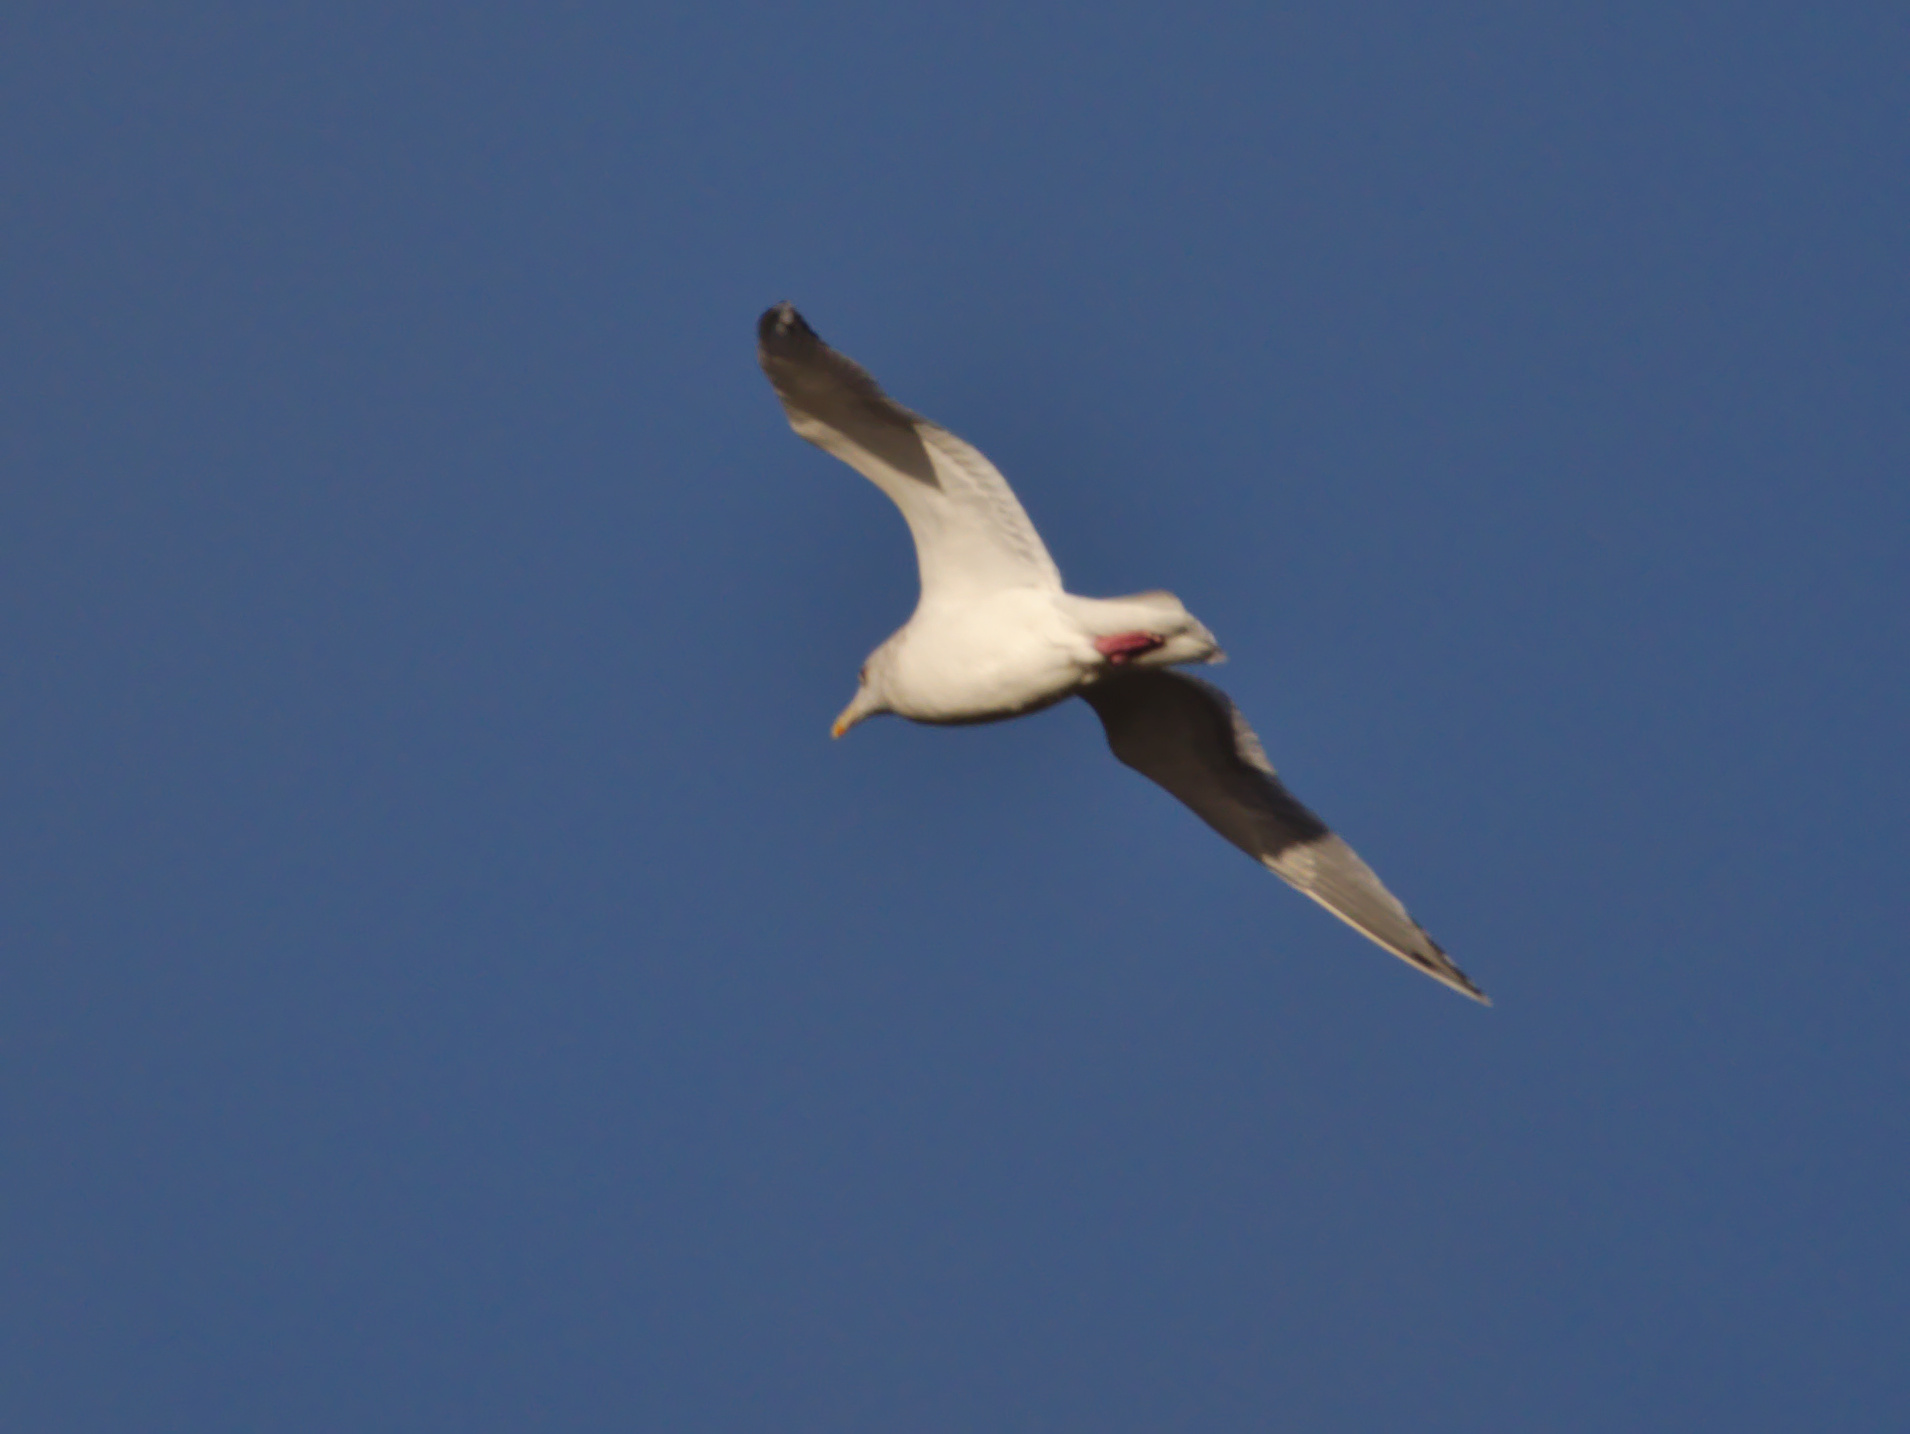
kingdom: Animalia
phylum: Chordata
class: Aves
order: Charadriiformes
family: Laridae
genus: Larus
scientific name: Larus
